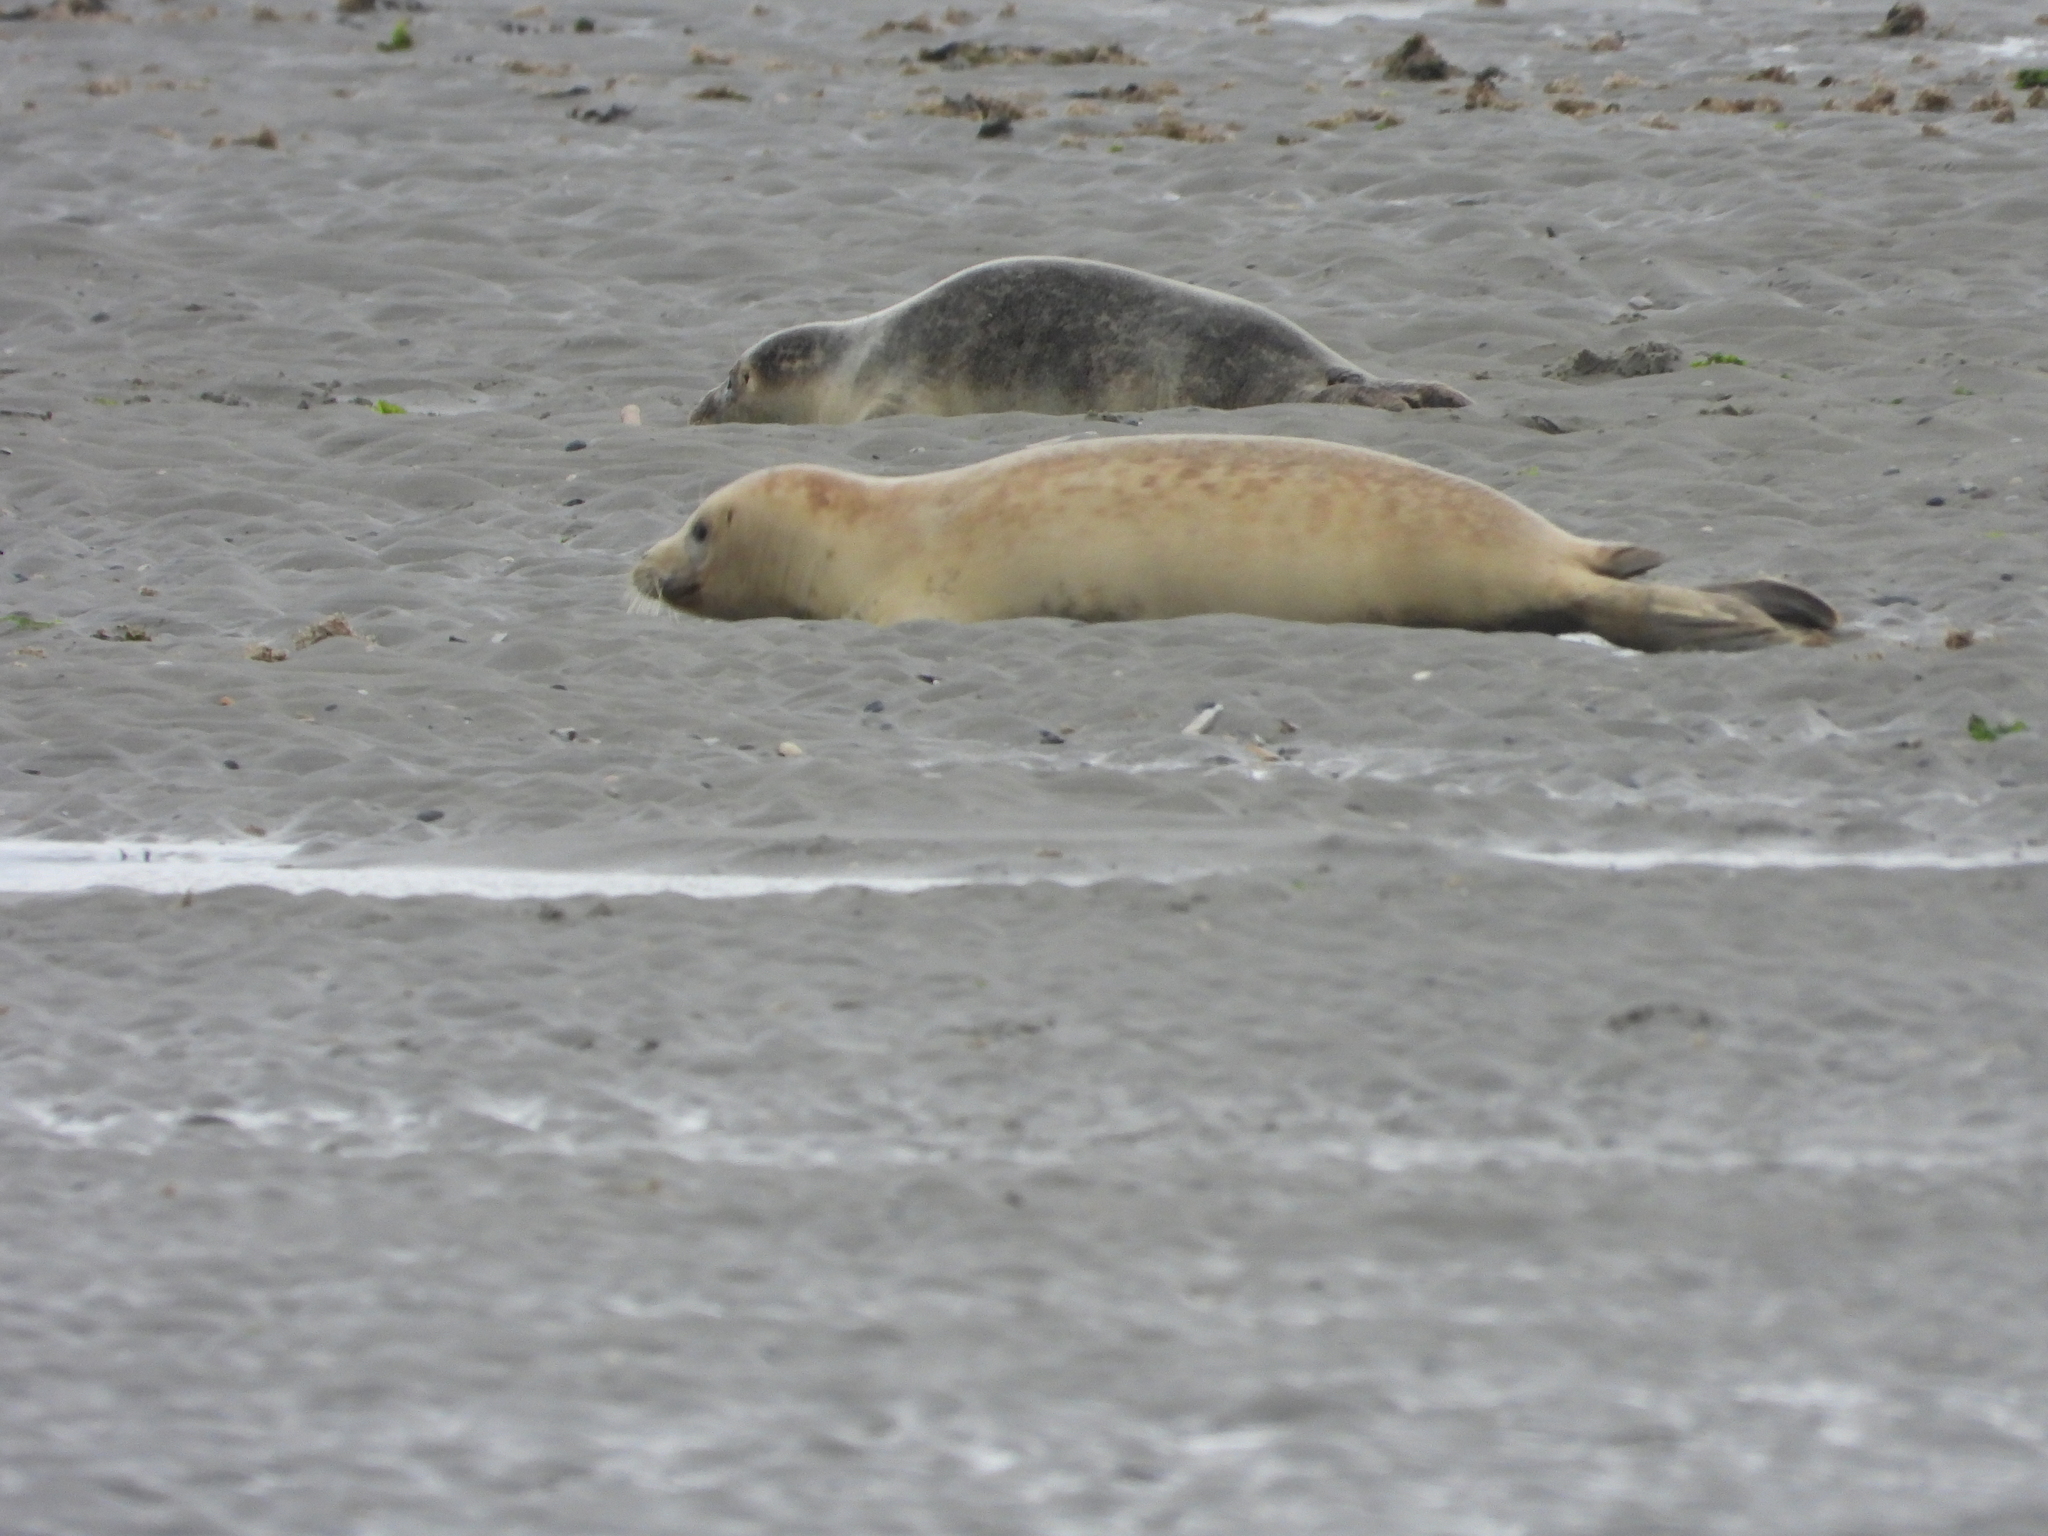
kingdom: Animalia
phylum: Chordata
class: Mammalia
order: Carnivora
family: Phocidae
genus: Phoca
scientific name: Phoca vitulina
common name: Harbor seal
